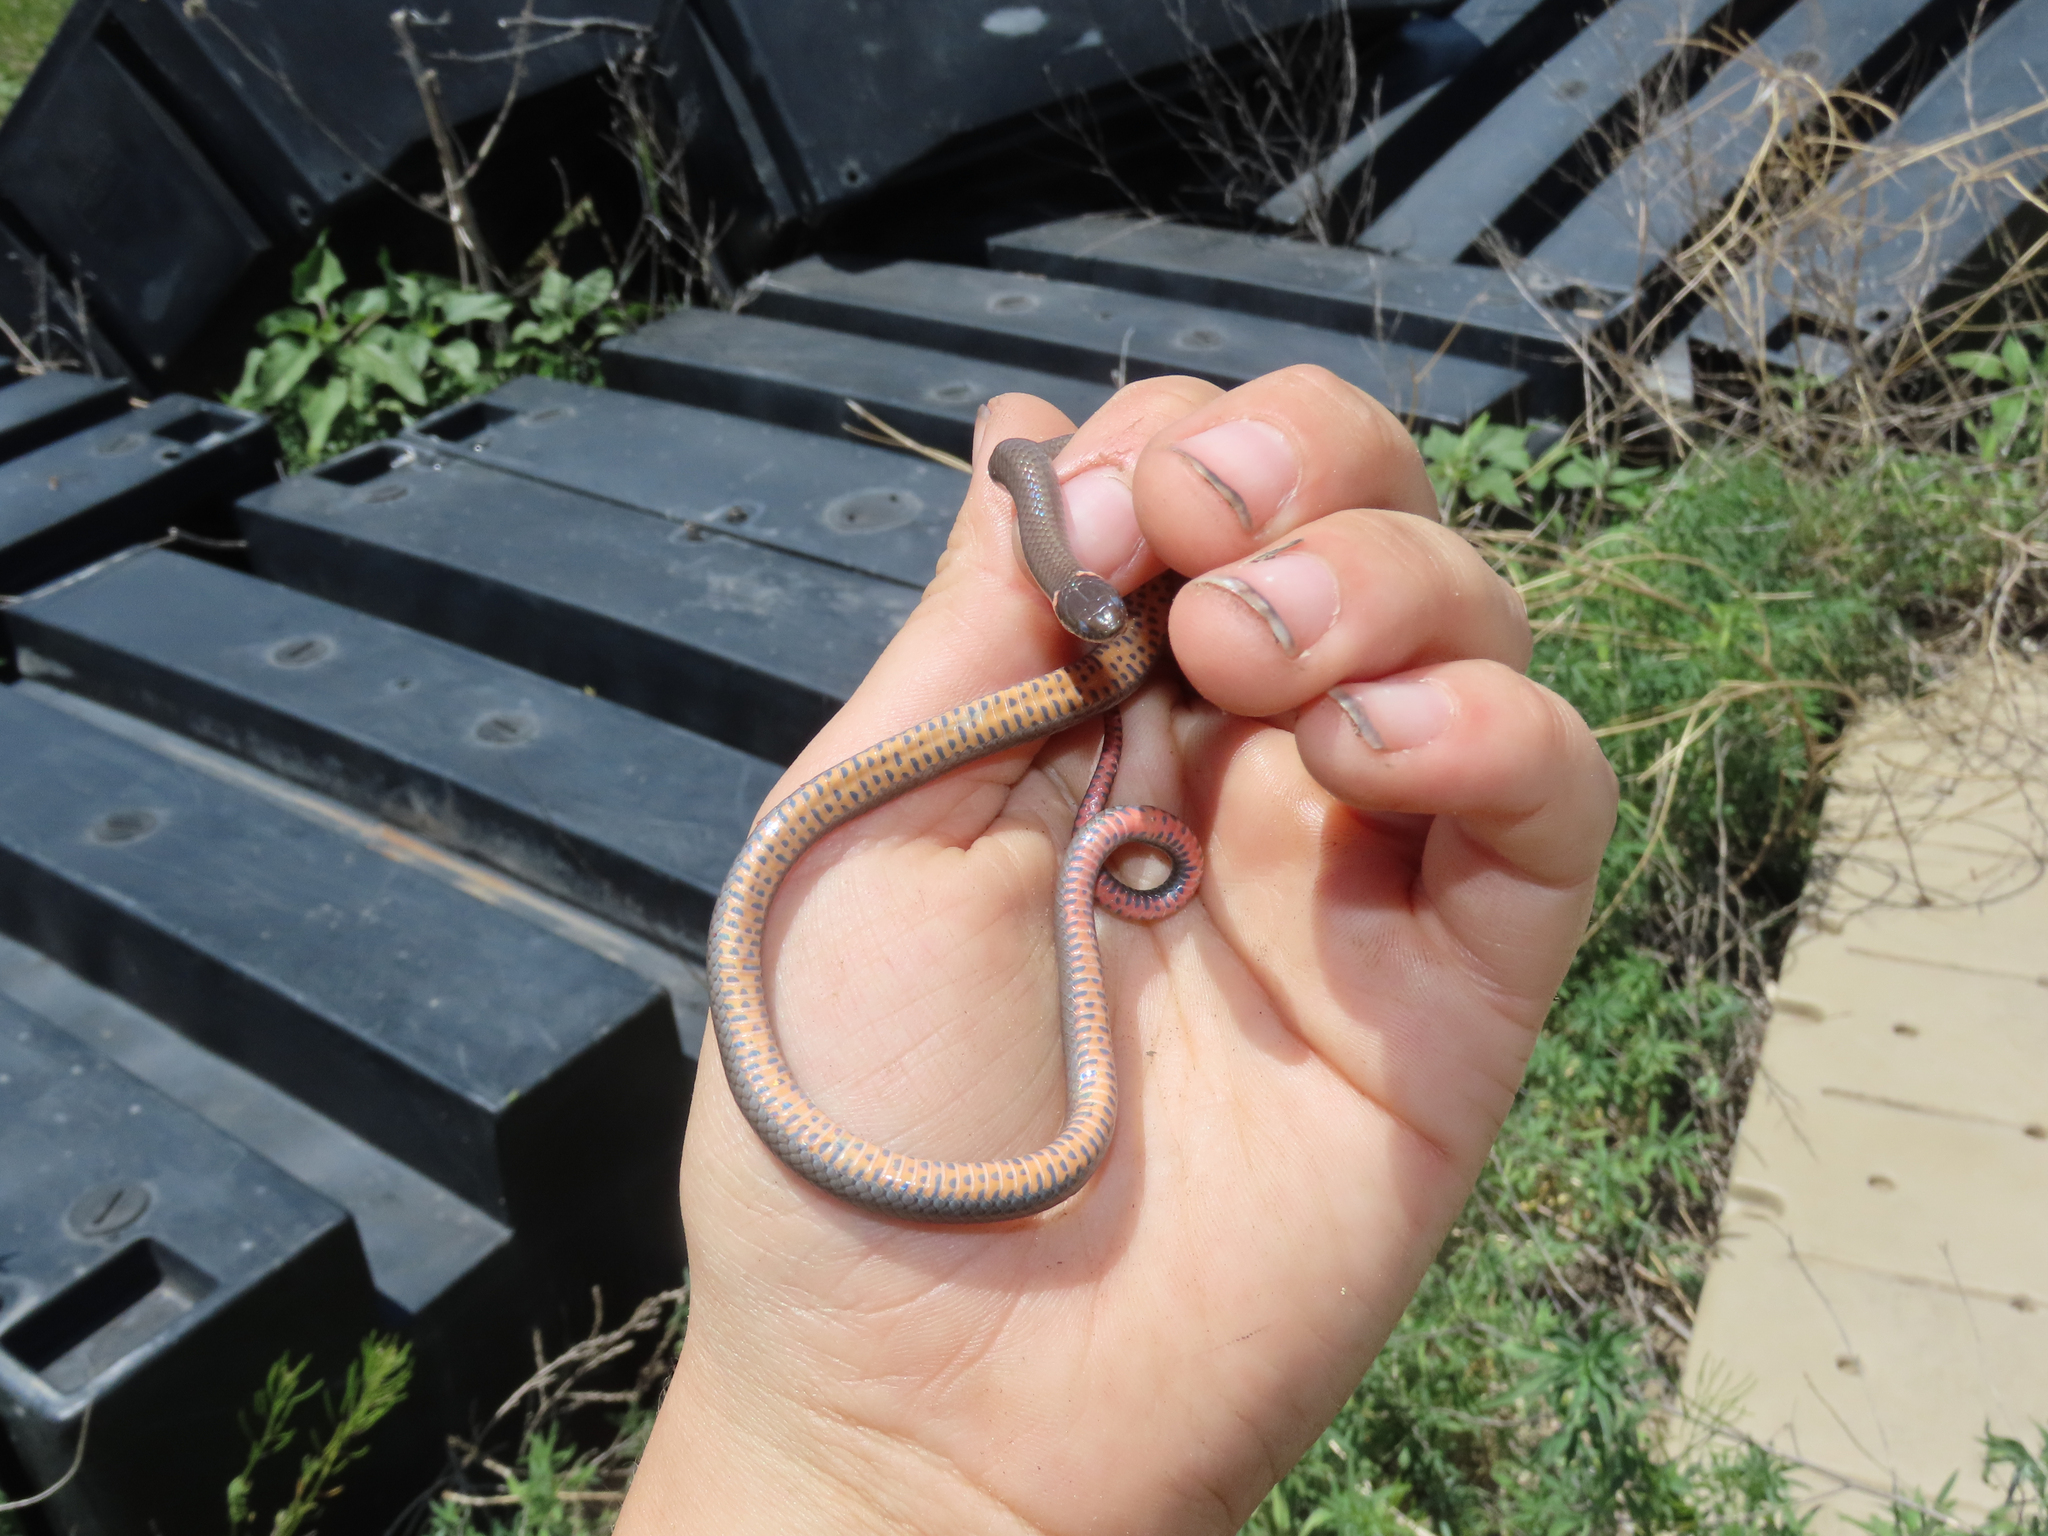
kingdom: Animalia
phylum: Chordata
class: Squamata
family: Colubridae
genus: Diadophis
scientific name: Diadophis punctatus
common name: Ringneck snake
